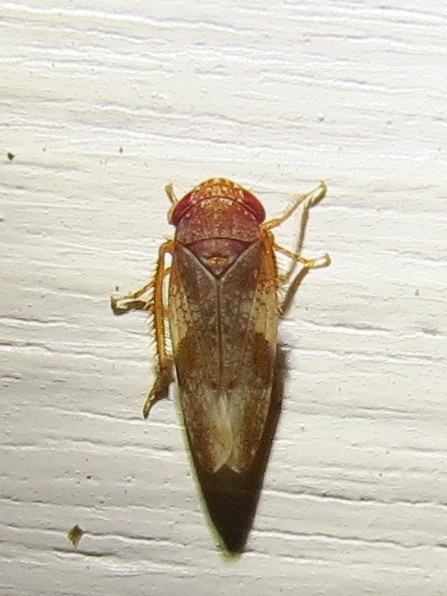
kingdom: Animalia
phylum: Arthropoda
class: Insecta
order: Hemiptera
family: Cicadellidae
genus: Norvellina
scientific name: Norvellina helenae
